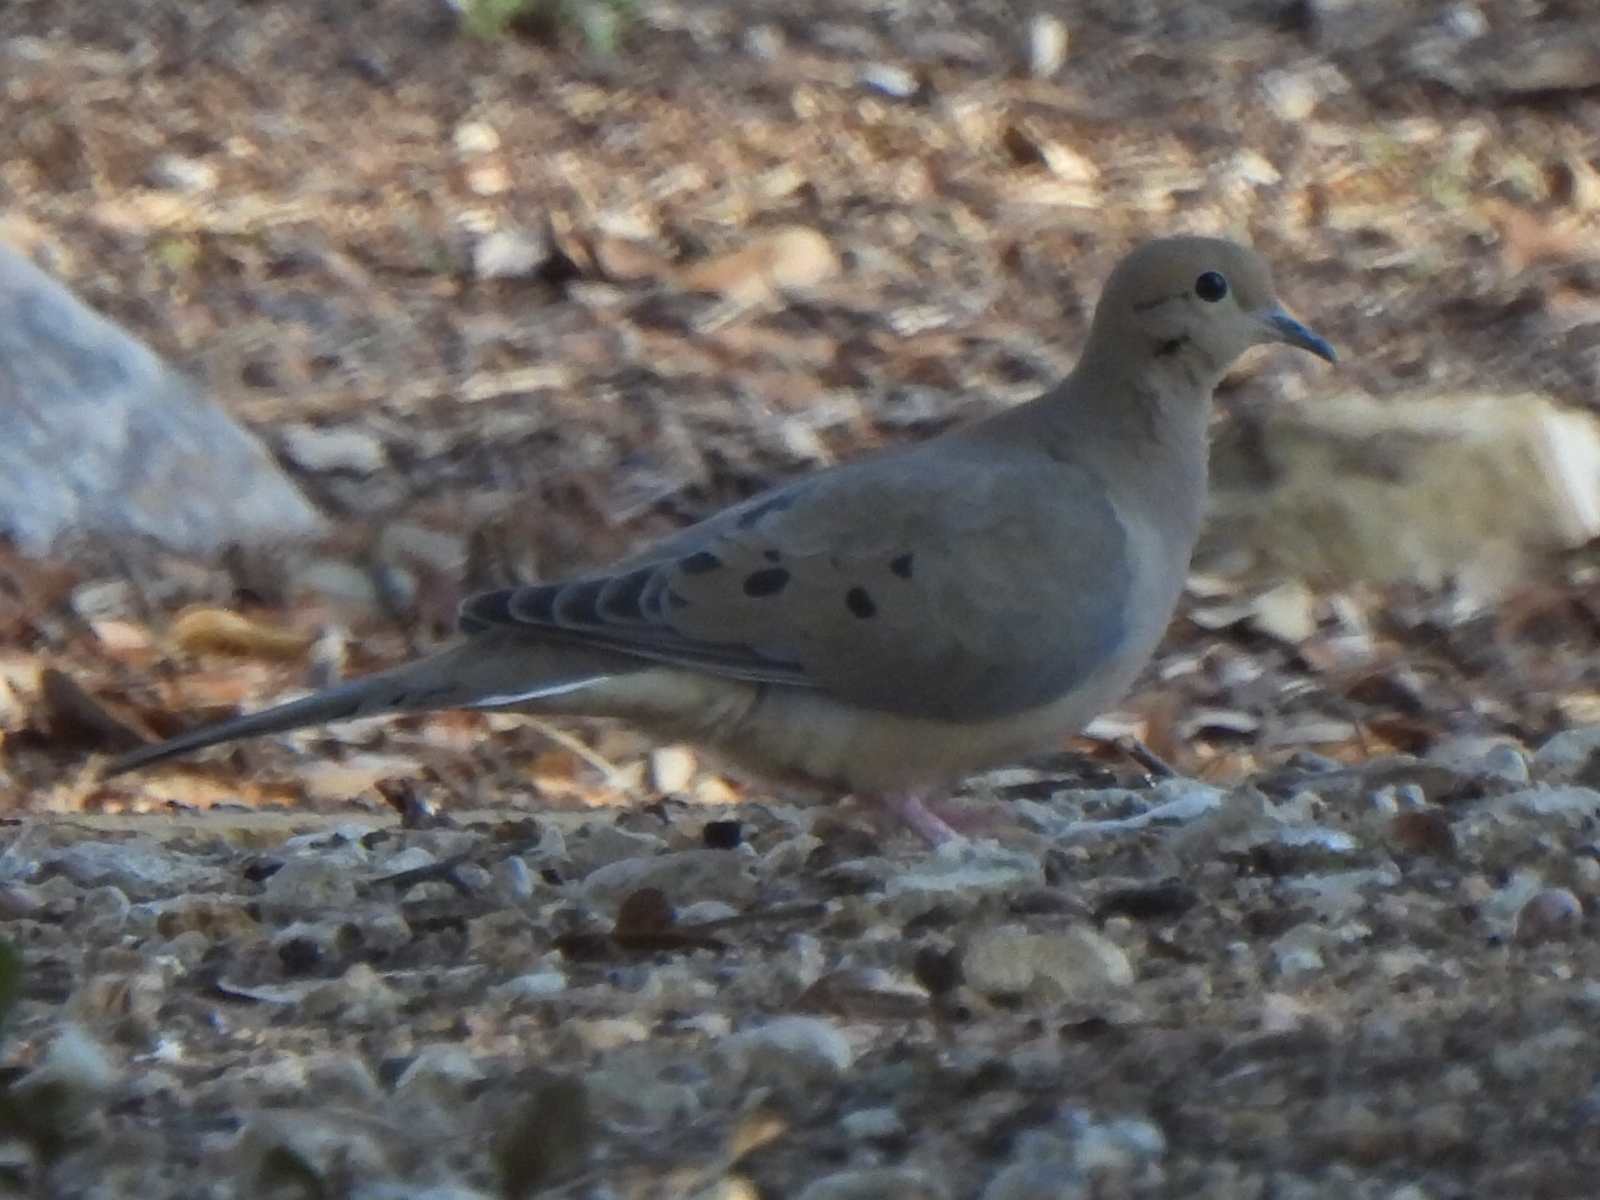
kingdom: Animalia
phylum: Chordata
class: Aves
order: Columbiformes
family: Columbidae
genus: Zenaida
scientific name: Zenaida macroura
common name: Mourning dove
